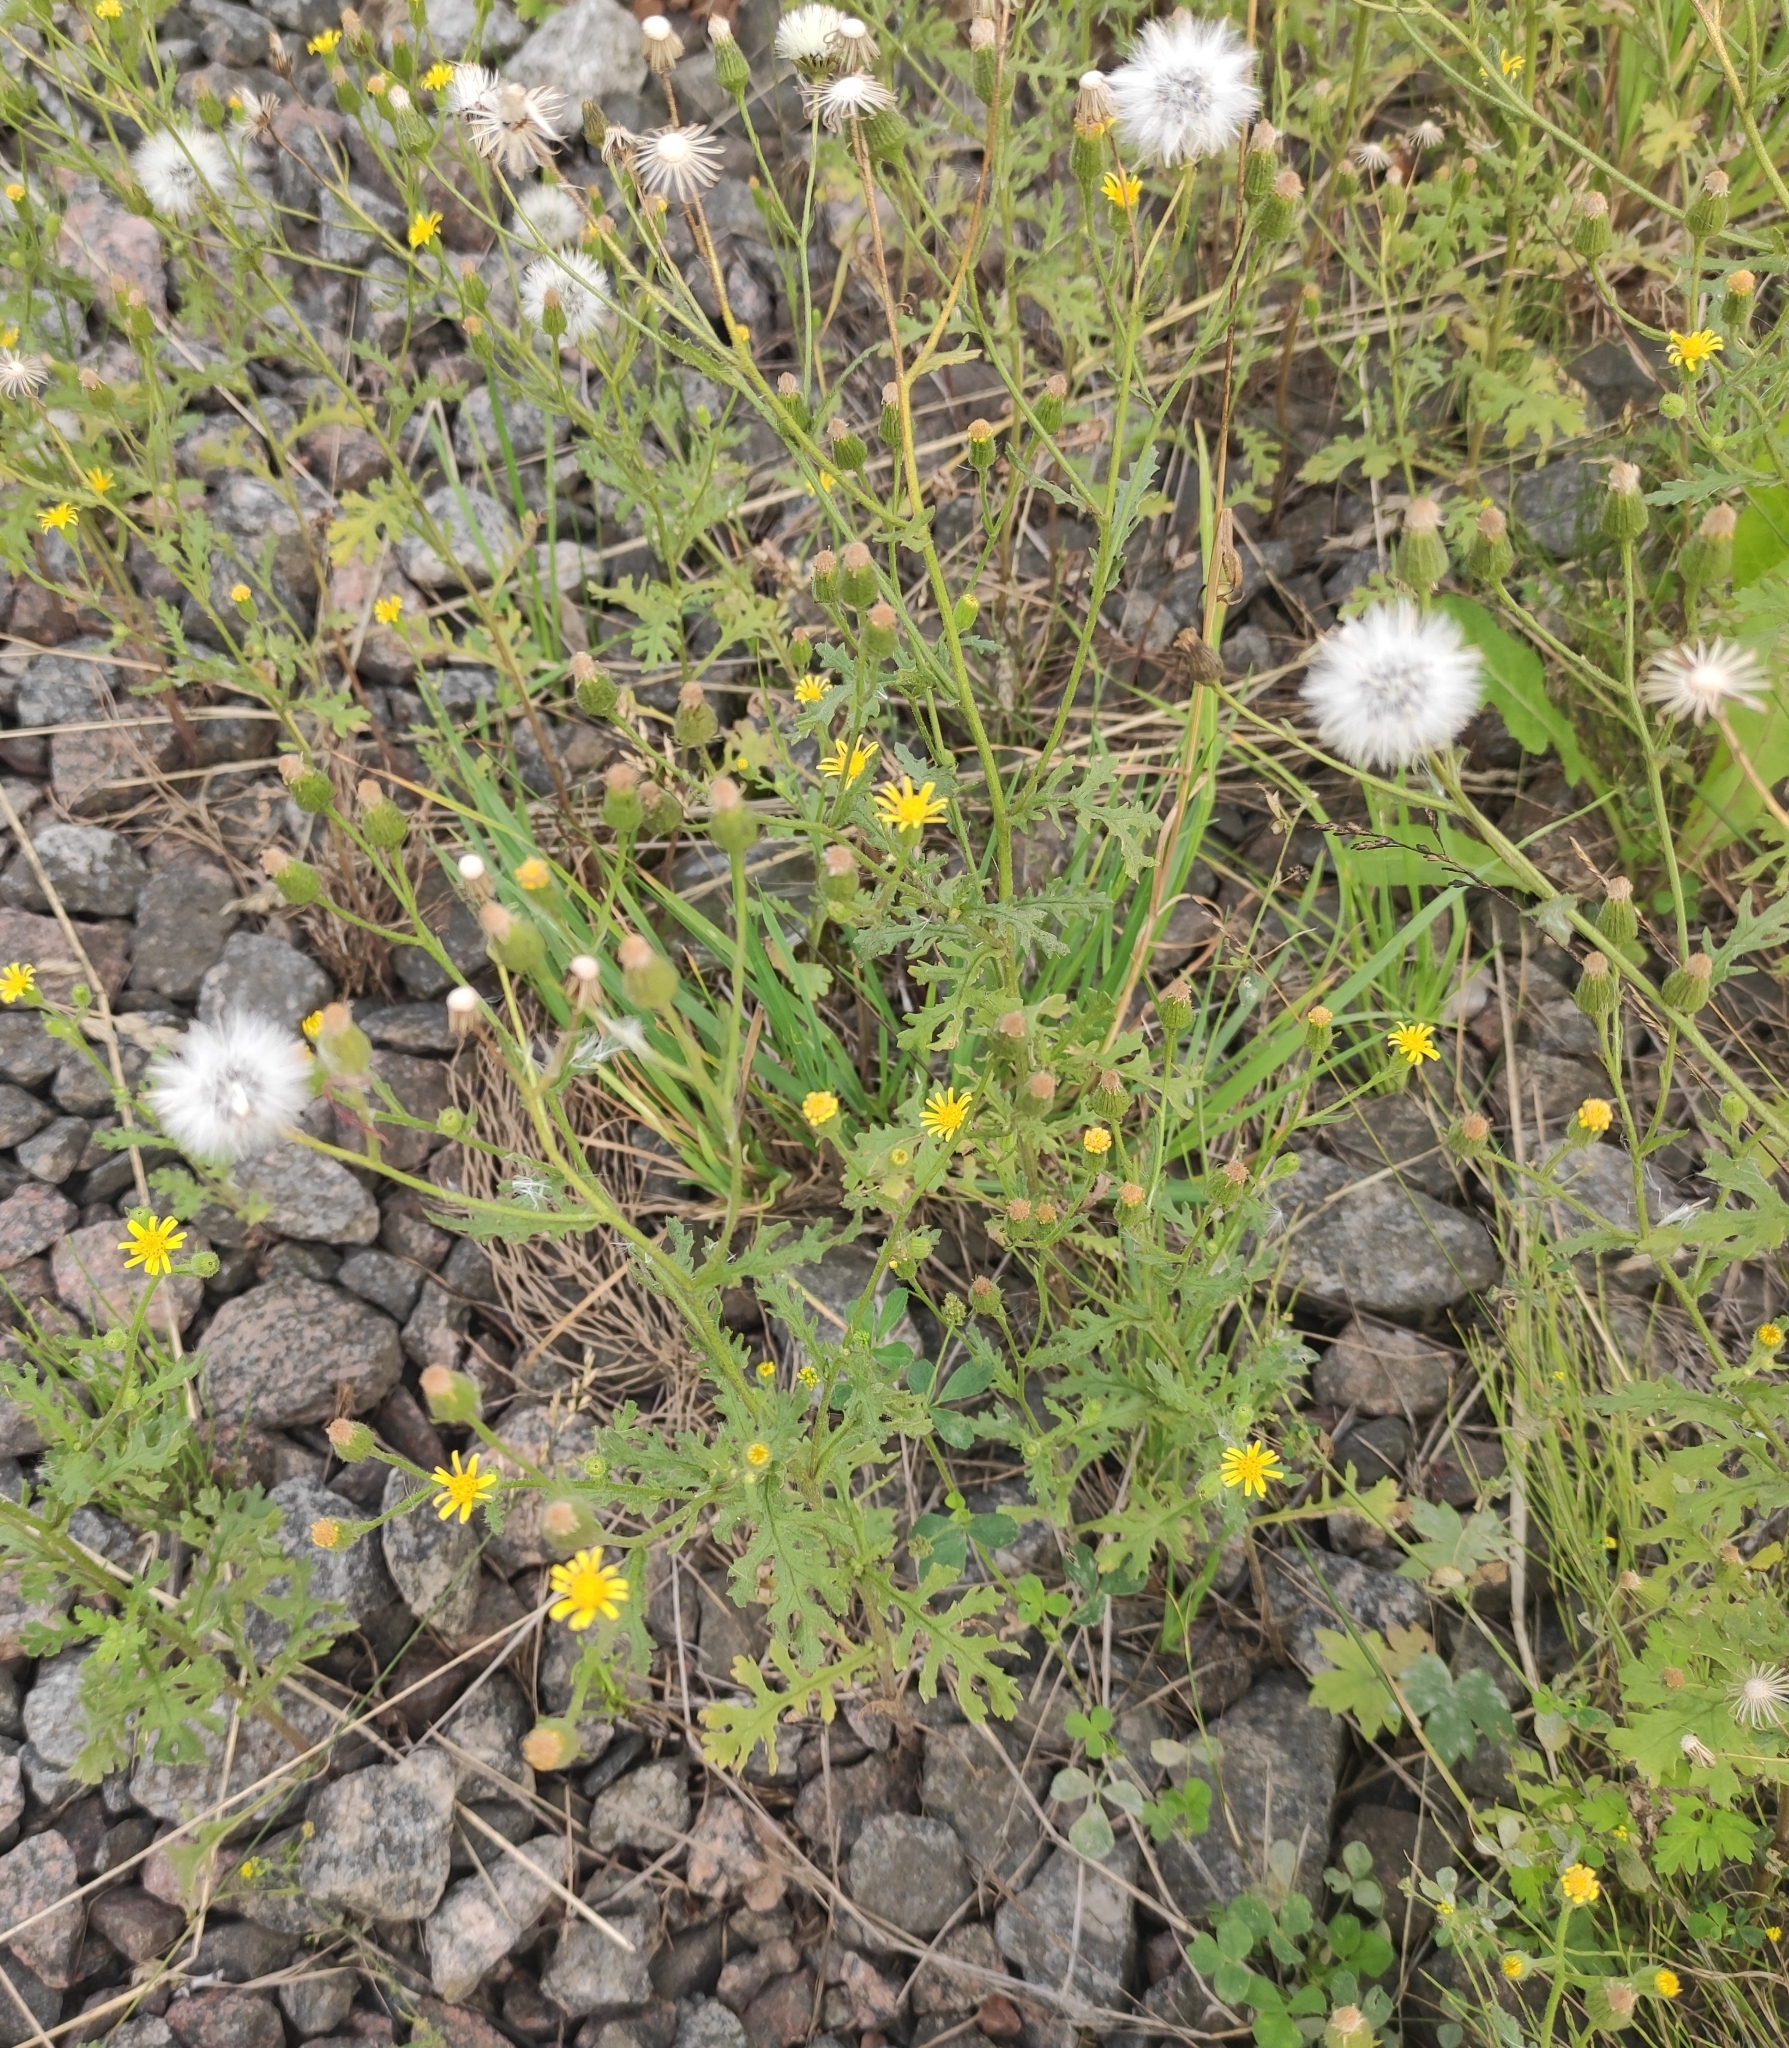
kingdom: Plantae
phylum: Tracheophyta
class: Magnoliopsida
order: Asterales
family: Asteraceae
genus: Senecio
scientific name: Senecio viscosus
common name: Sticky groundsel
